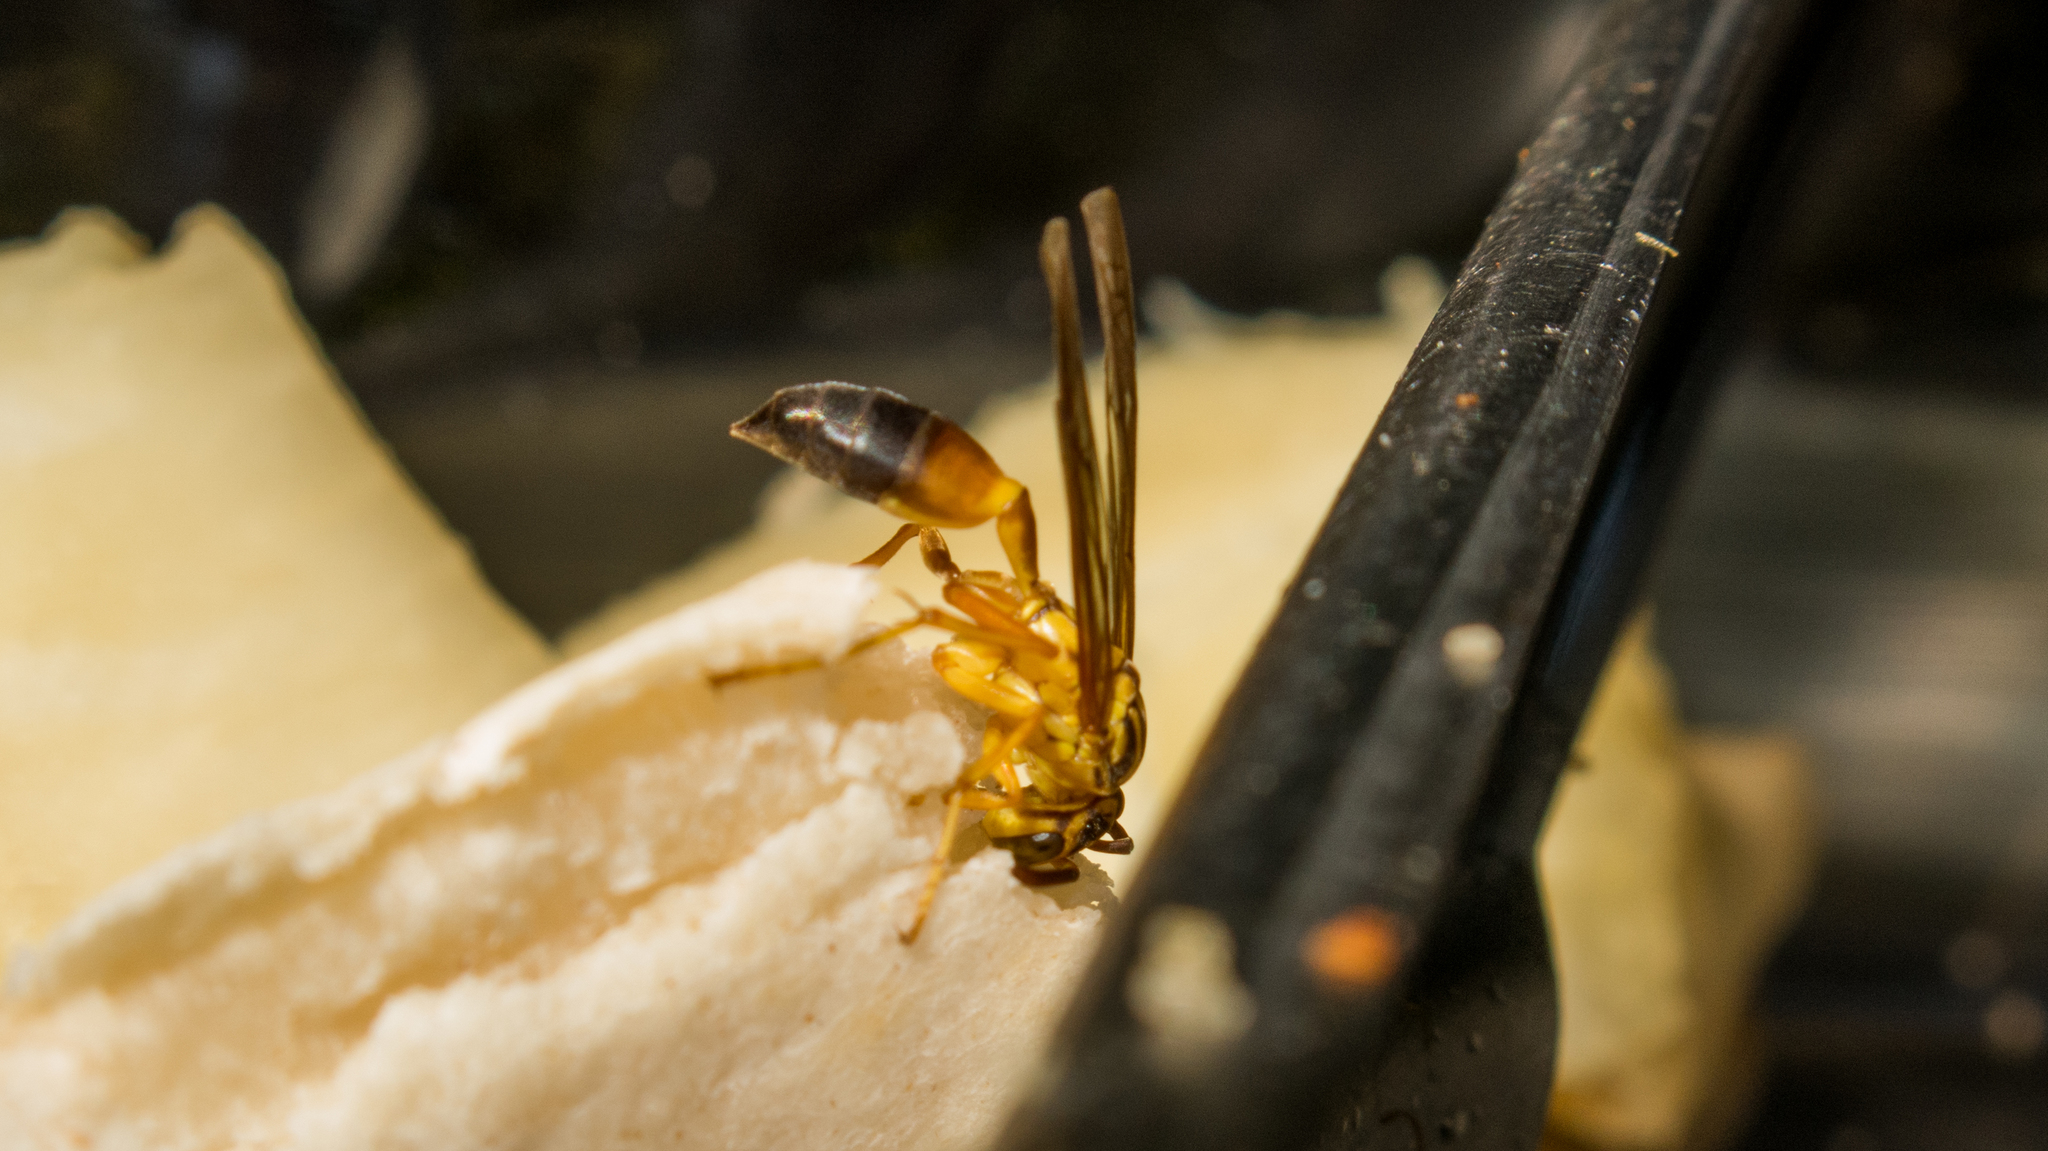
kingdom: Animalia
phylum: Arthropoda
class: Insecta
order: Hymenoptera
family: Vespidae
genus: Agelaia
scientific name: Agelaia pallipes
